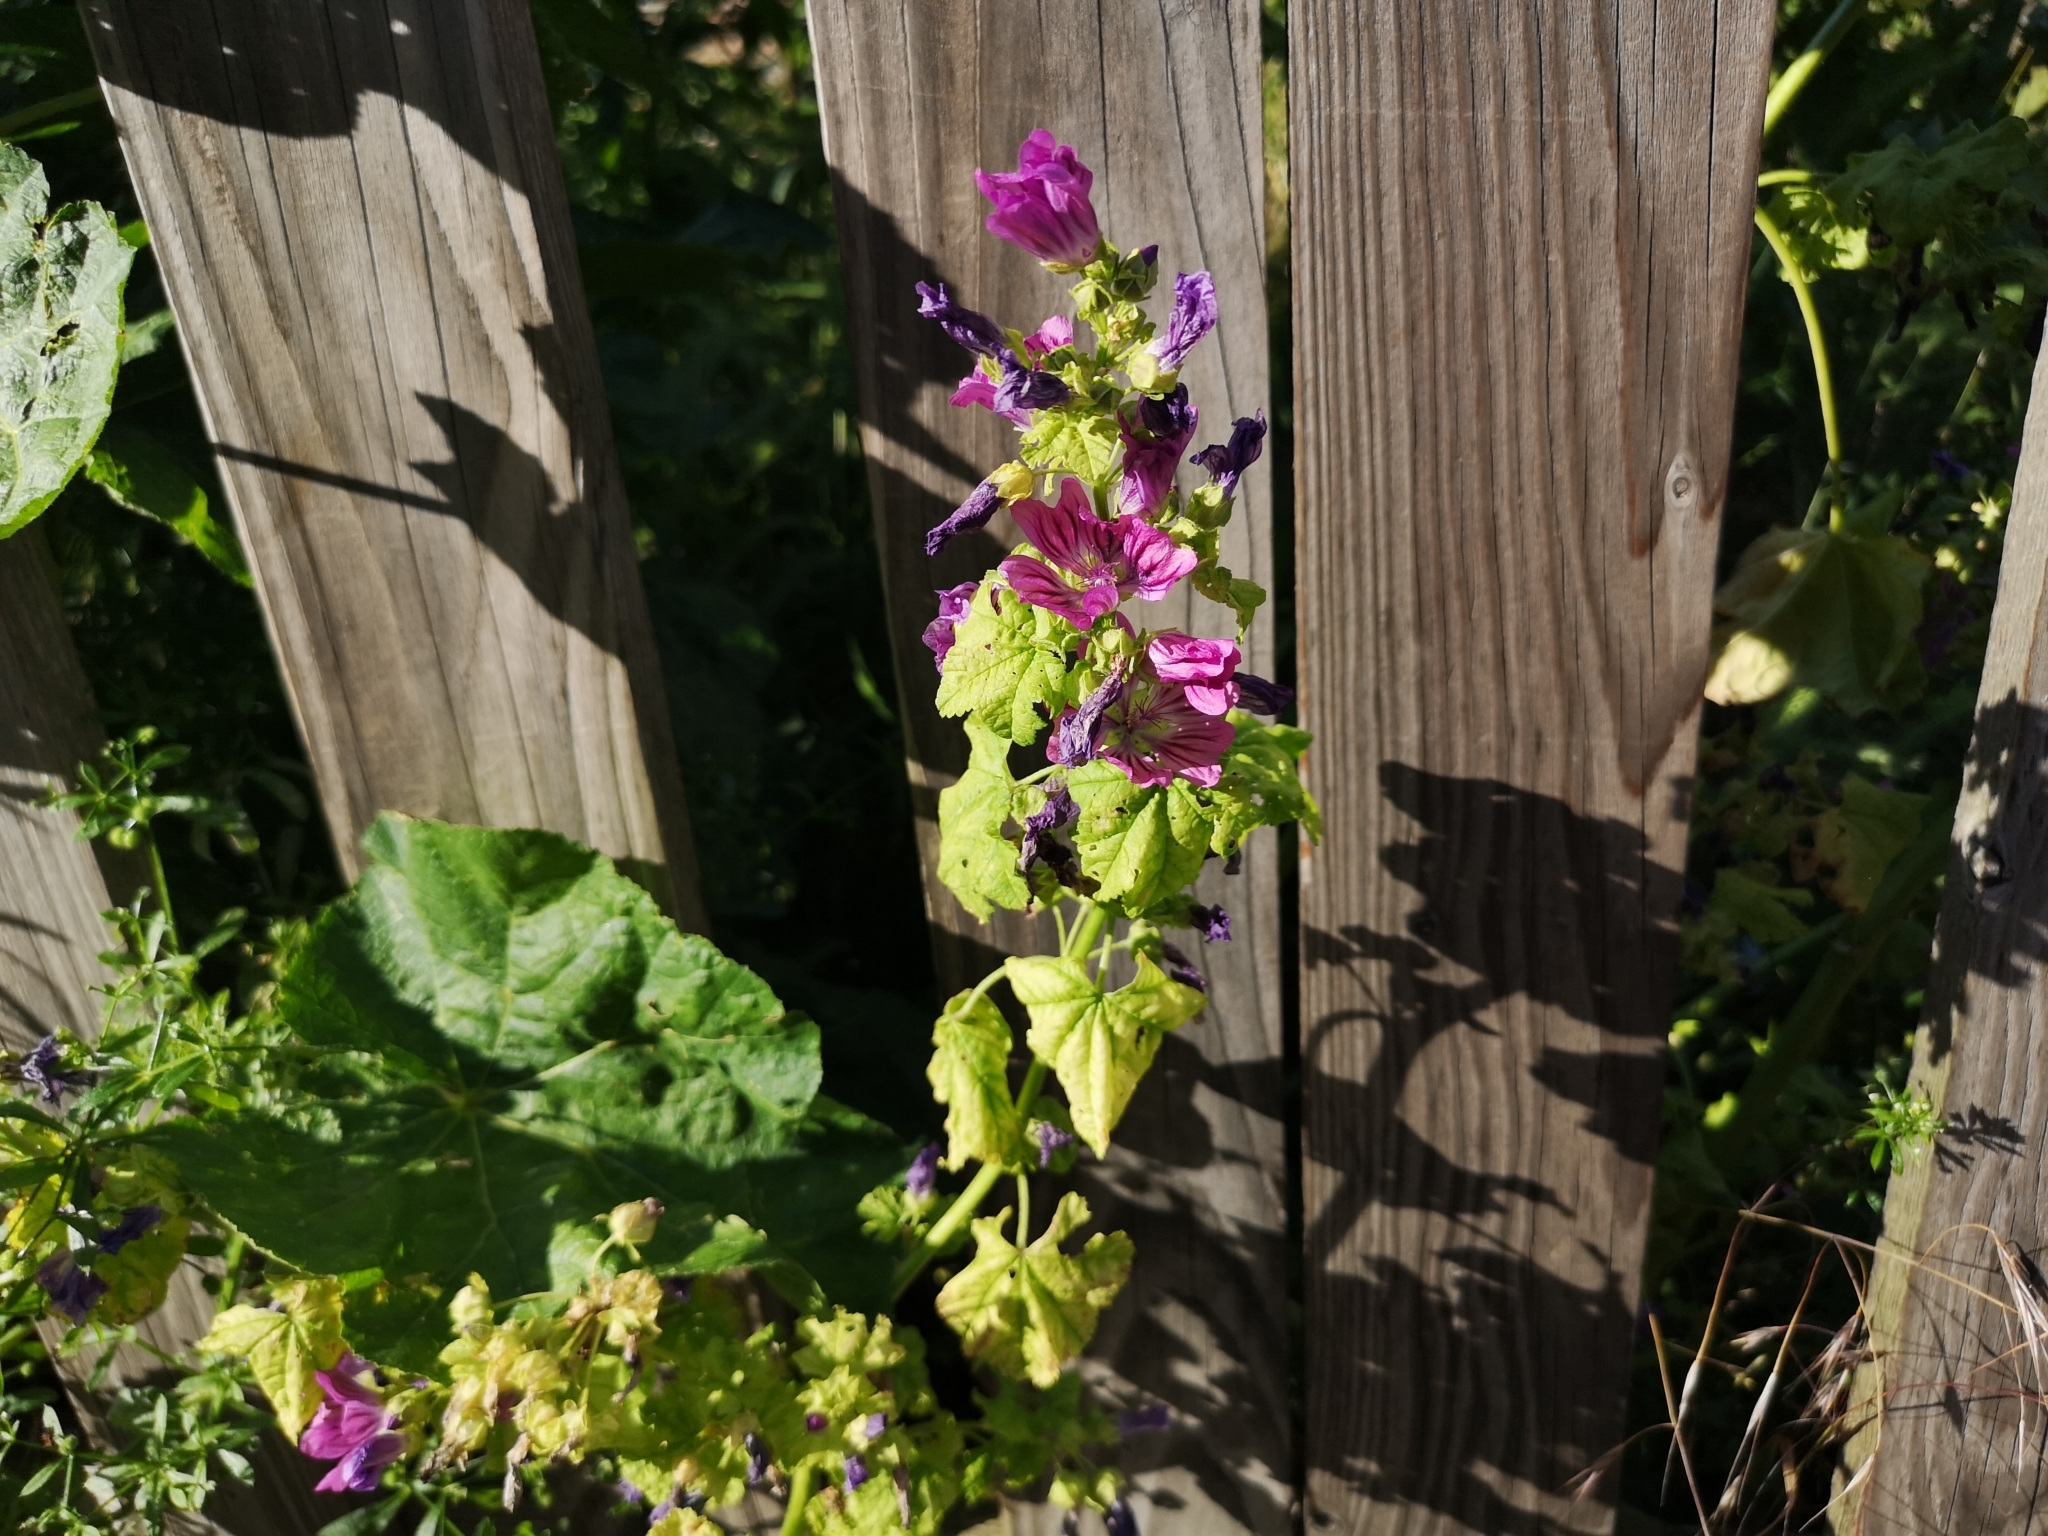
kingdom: Plantae
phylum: Tracheophyta
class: Magnoliopsida
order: Malvales
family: Malvaceae
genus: Malva
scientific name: Malva sylvestris
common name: Common mallow
